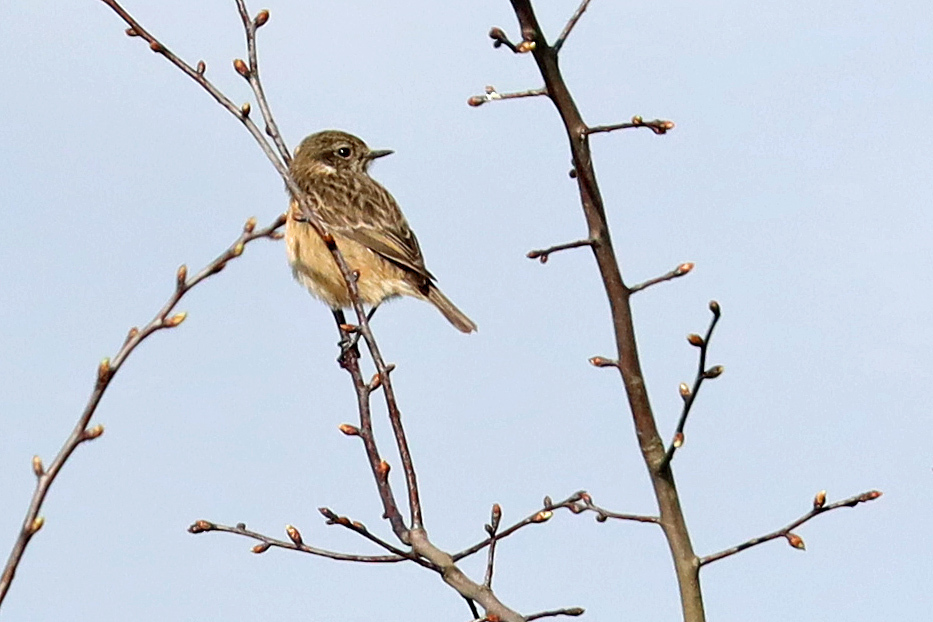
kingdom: Animalia
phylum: Chordata
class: Aves
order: Passeriformes
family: Muscicapidae
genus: Saxicola
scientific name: Saxicola rubicola
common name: European stonechat
